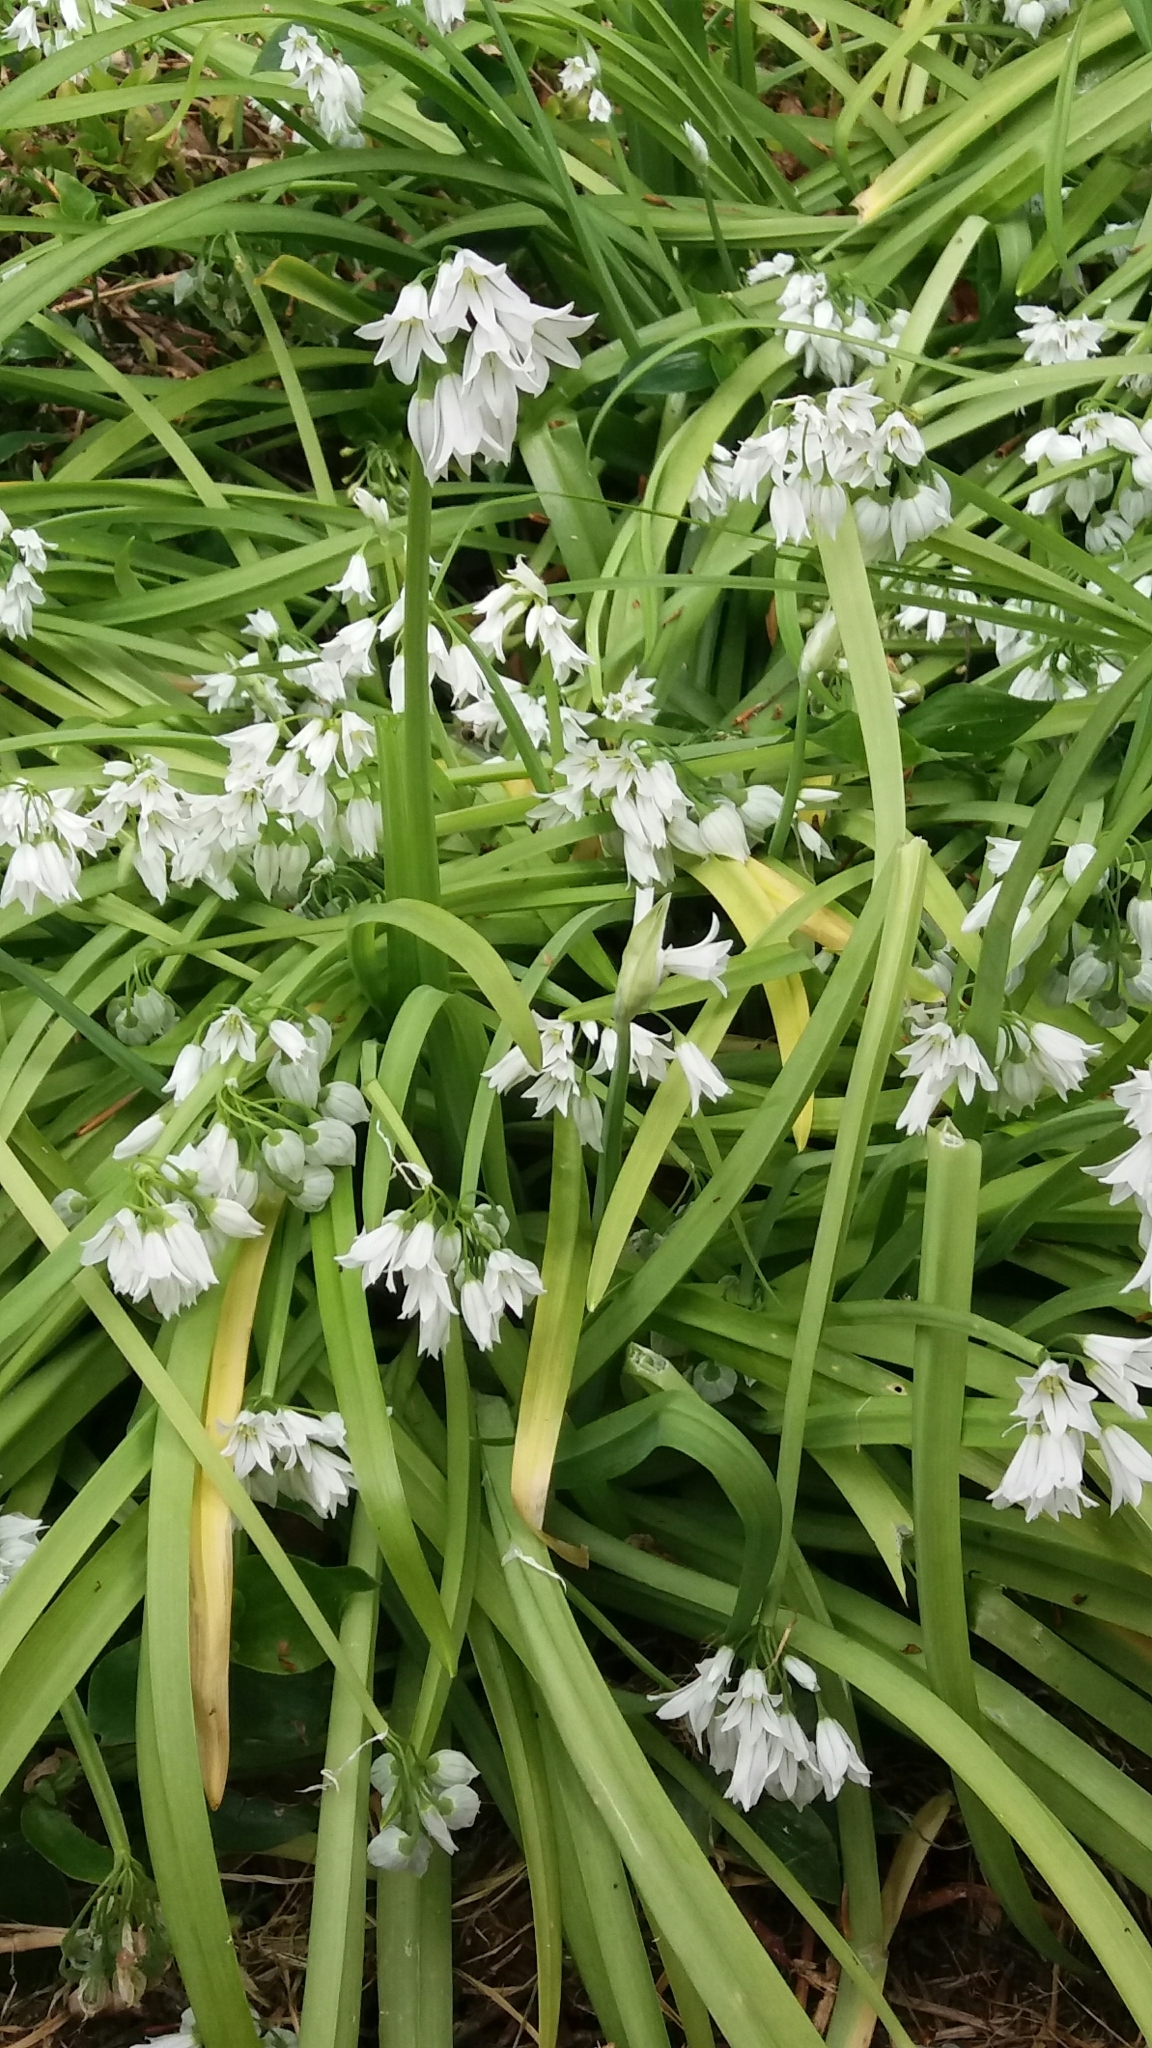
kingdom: Plantae
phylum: Tracheophyta
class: Liliopsida
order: Asparagales
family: Amaryllidaceae
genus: Allium
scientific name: Allium triquetrum
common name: Three-cornered garlic
